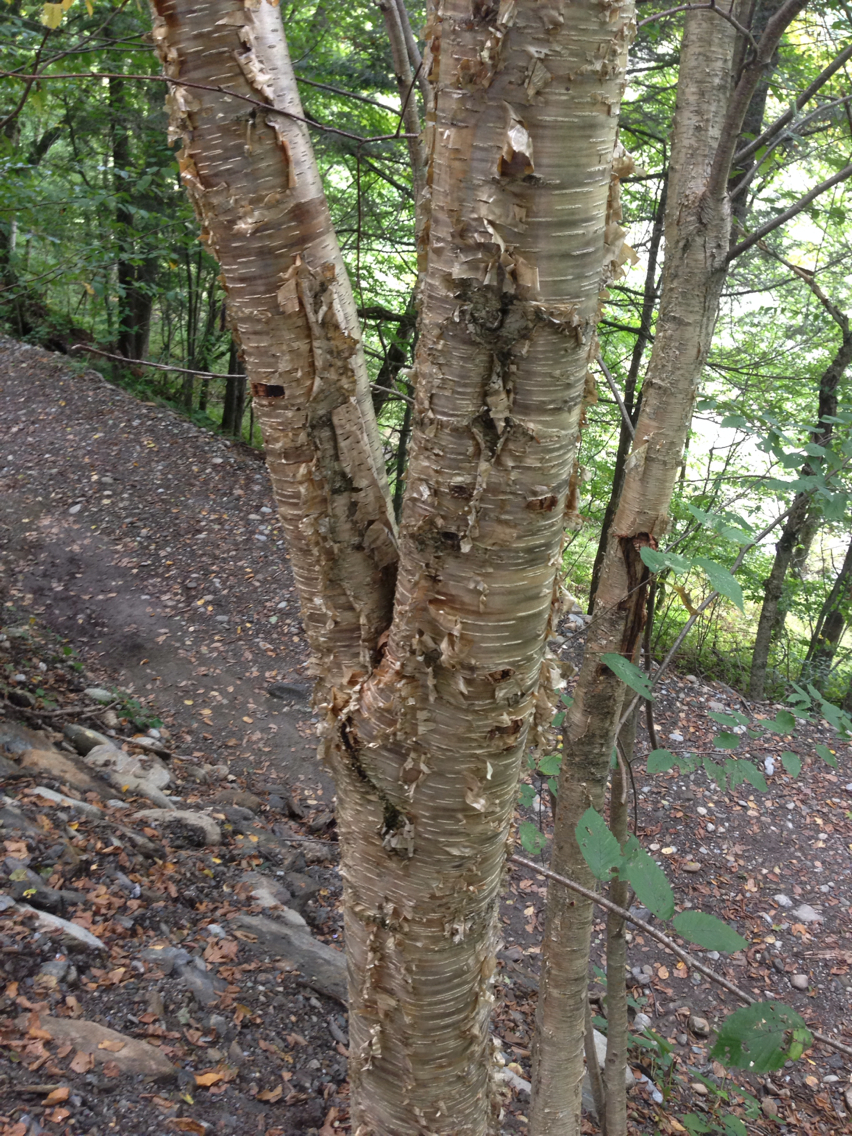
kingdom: Plantae
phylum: Tracheophyta
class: Magnoliopsida
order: Fagales
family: Betulaceae
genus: Betula
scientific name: Betula alleghaniensis
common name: Yellow birch
